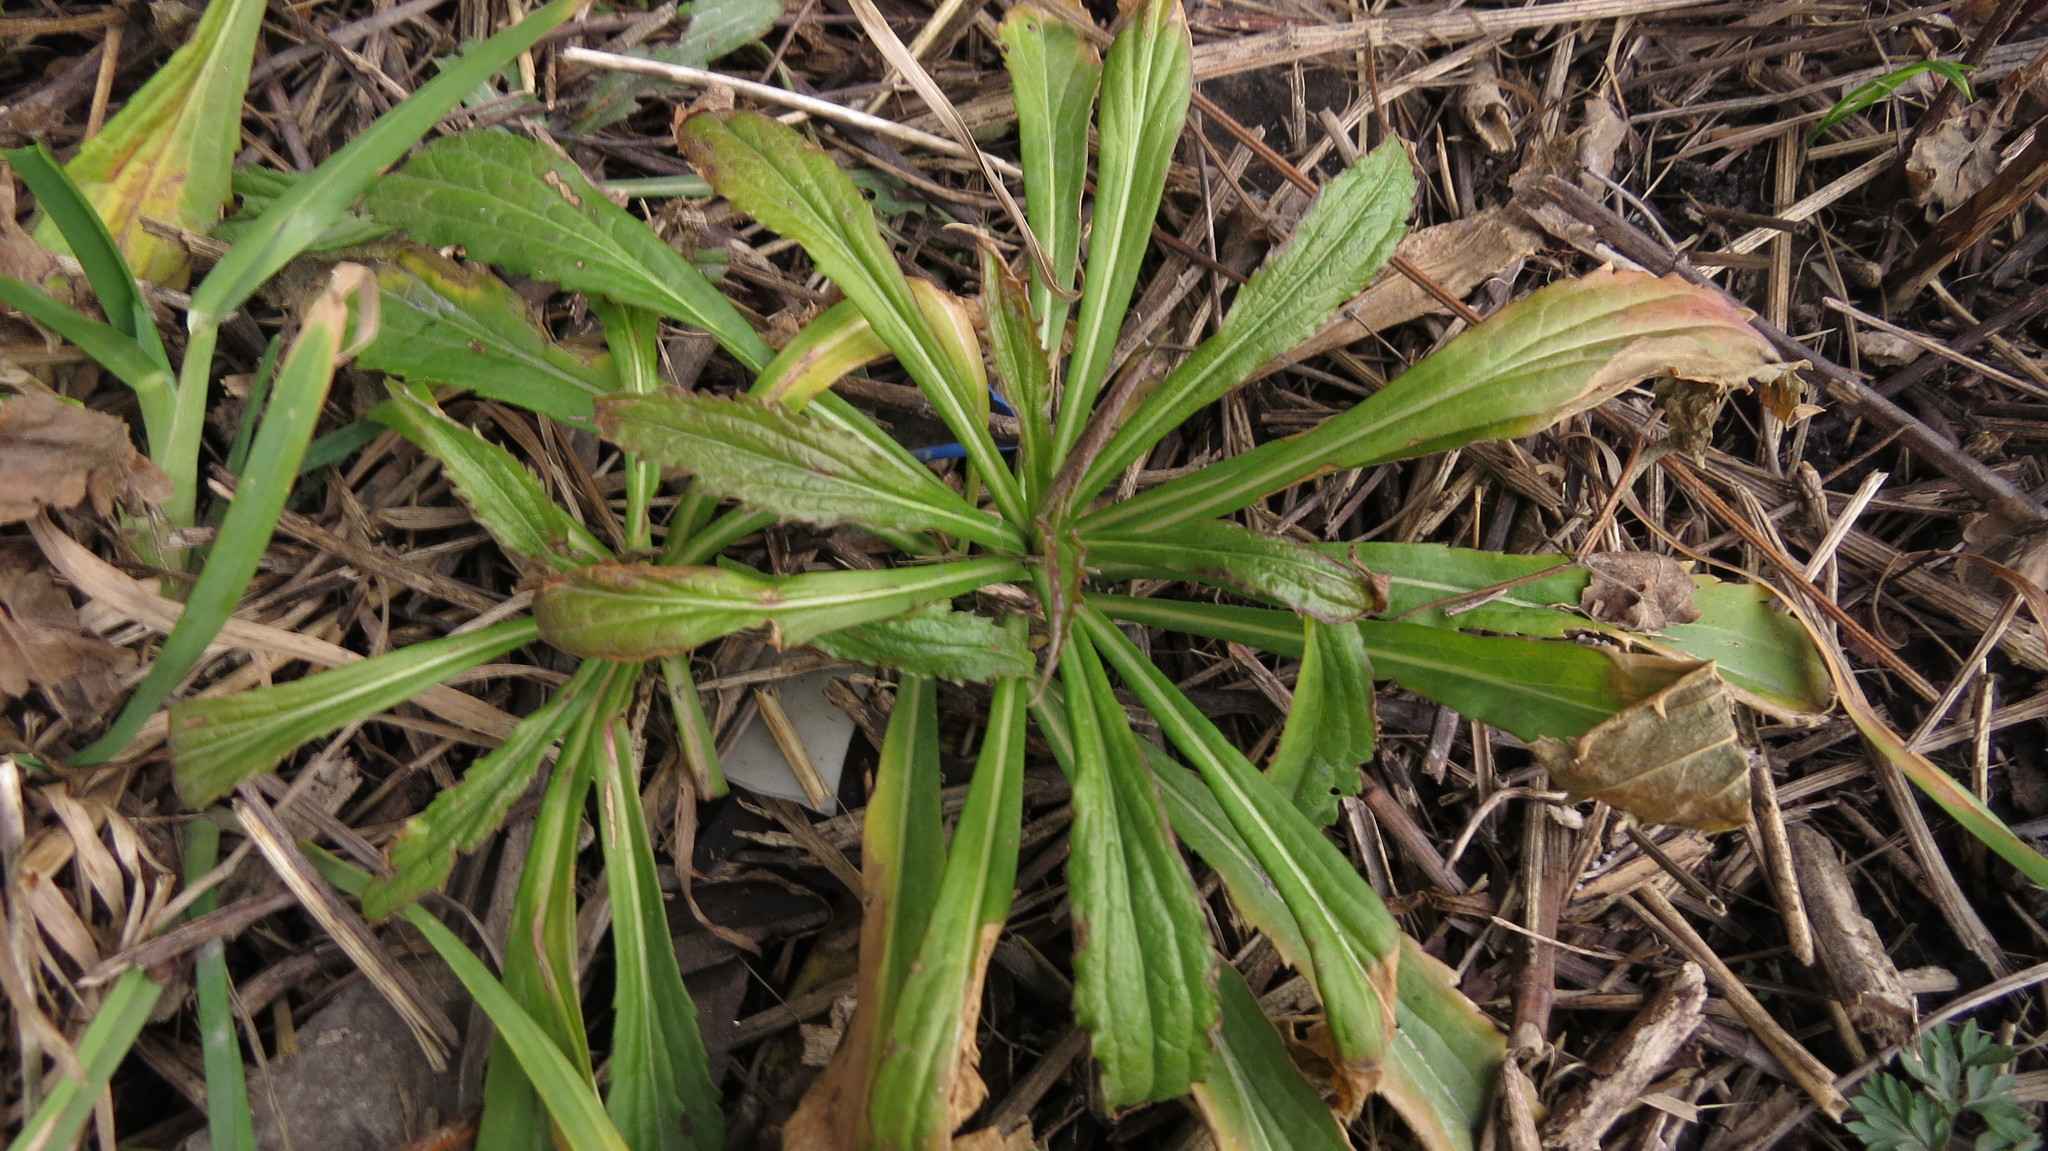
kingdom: Plantae
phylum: Tracheophyta
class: Magnoliopsida
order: Asterales
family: Asteraceae
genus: Erigeron
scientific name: Erigeron canadensis
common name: Canadian fleabane
